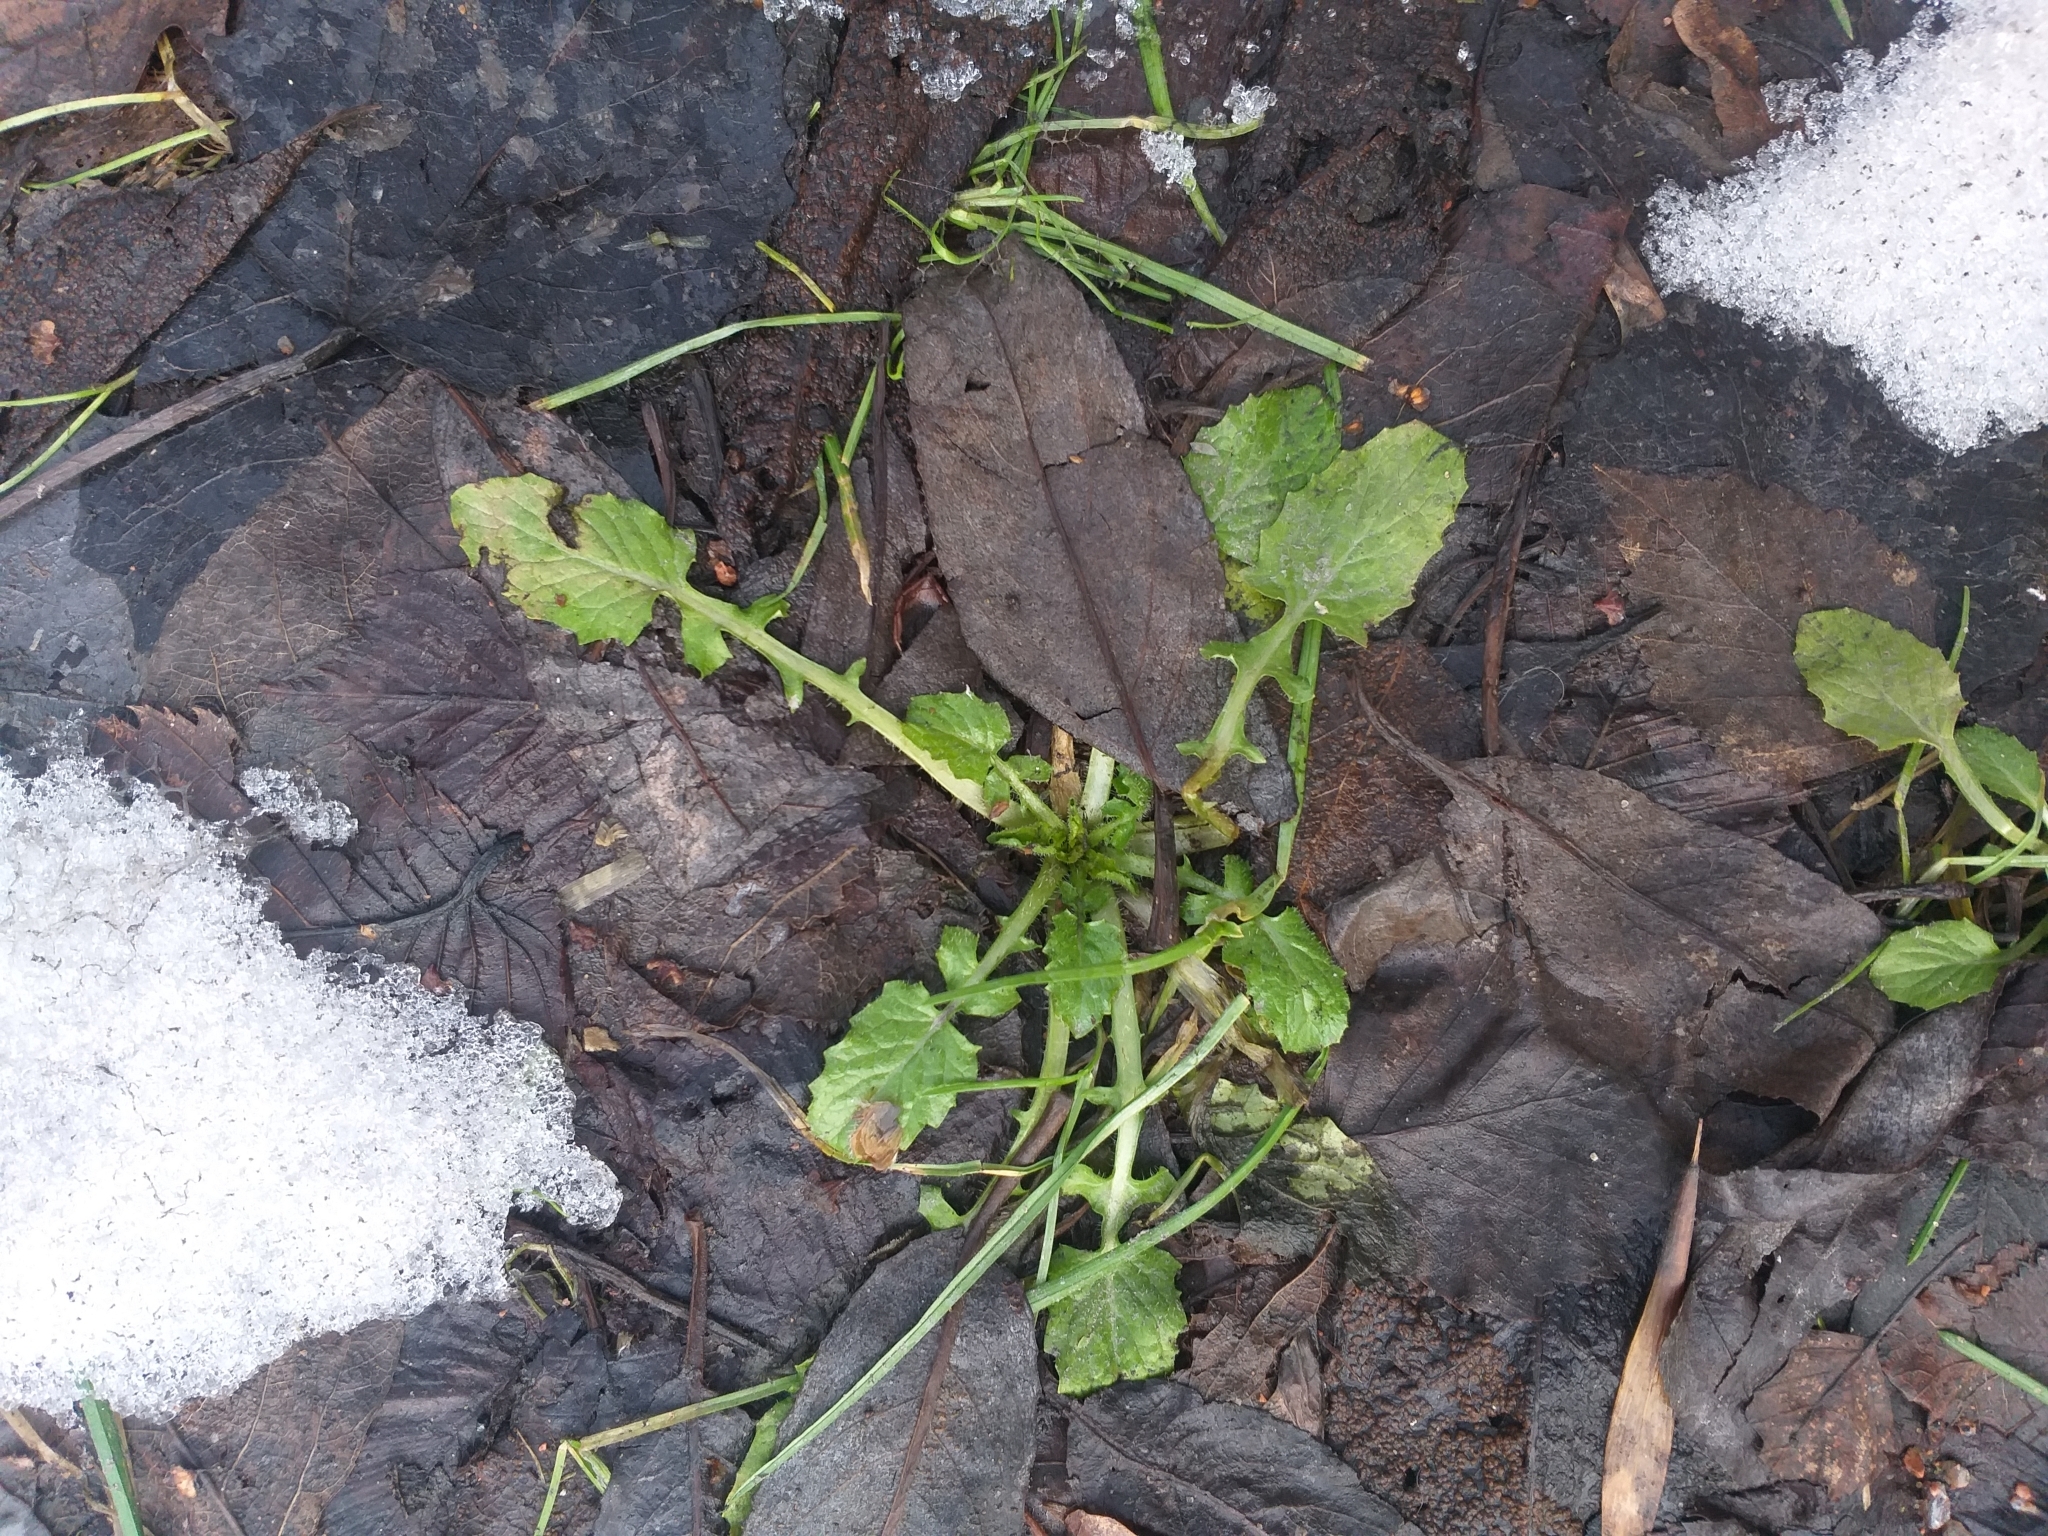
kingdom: Plantae
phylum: Tracheophyta
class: Magnoliopsida
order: Asterales
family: Asteraceae
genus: Lapsana
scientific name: Lapsana communis
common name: Nipplewort
